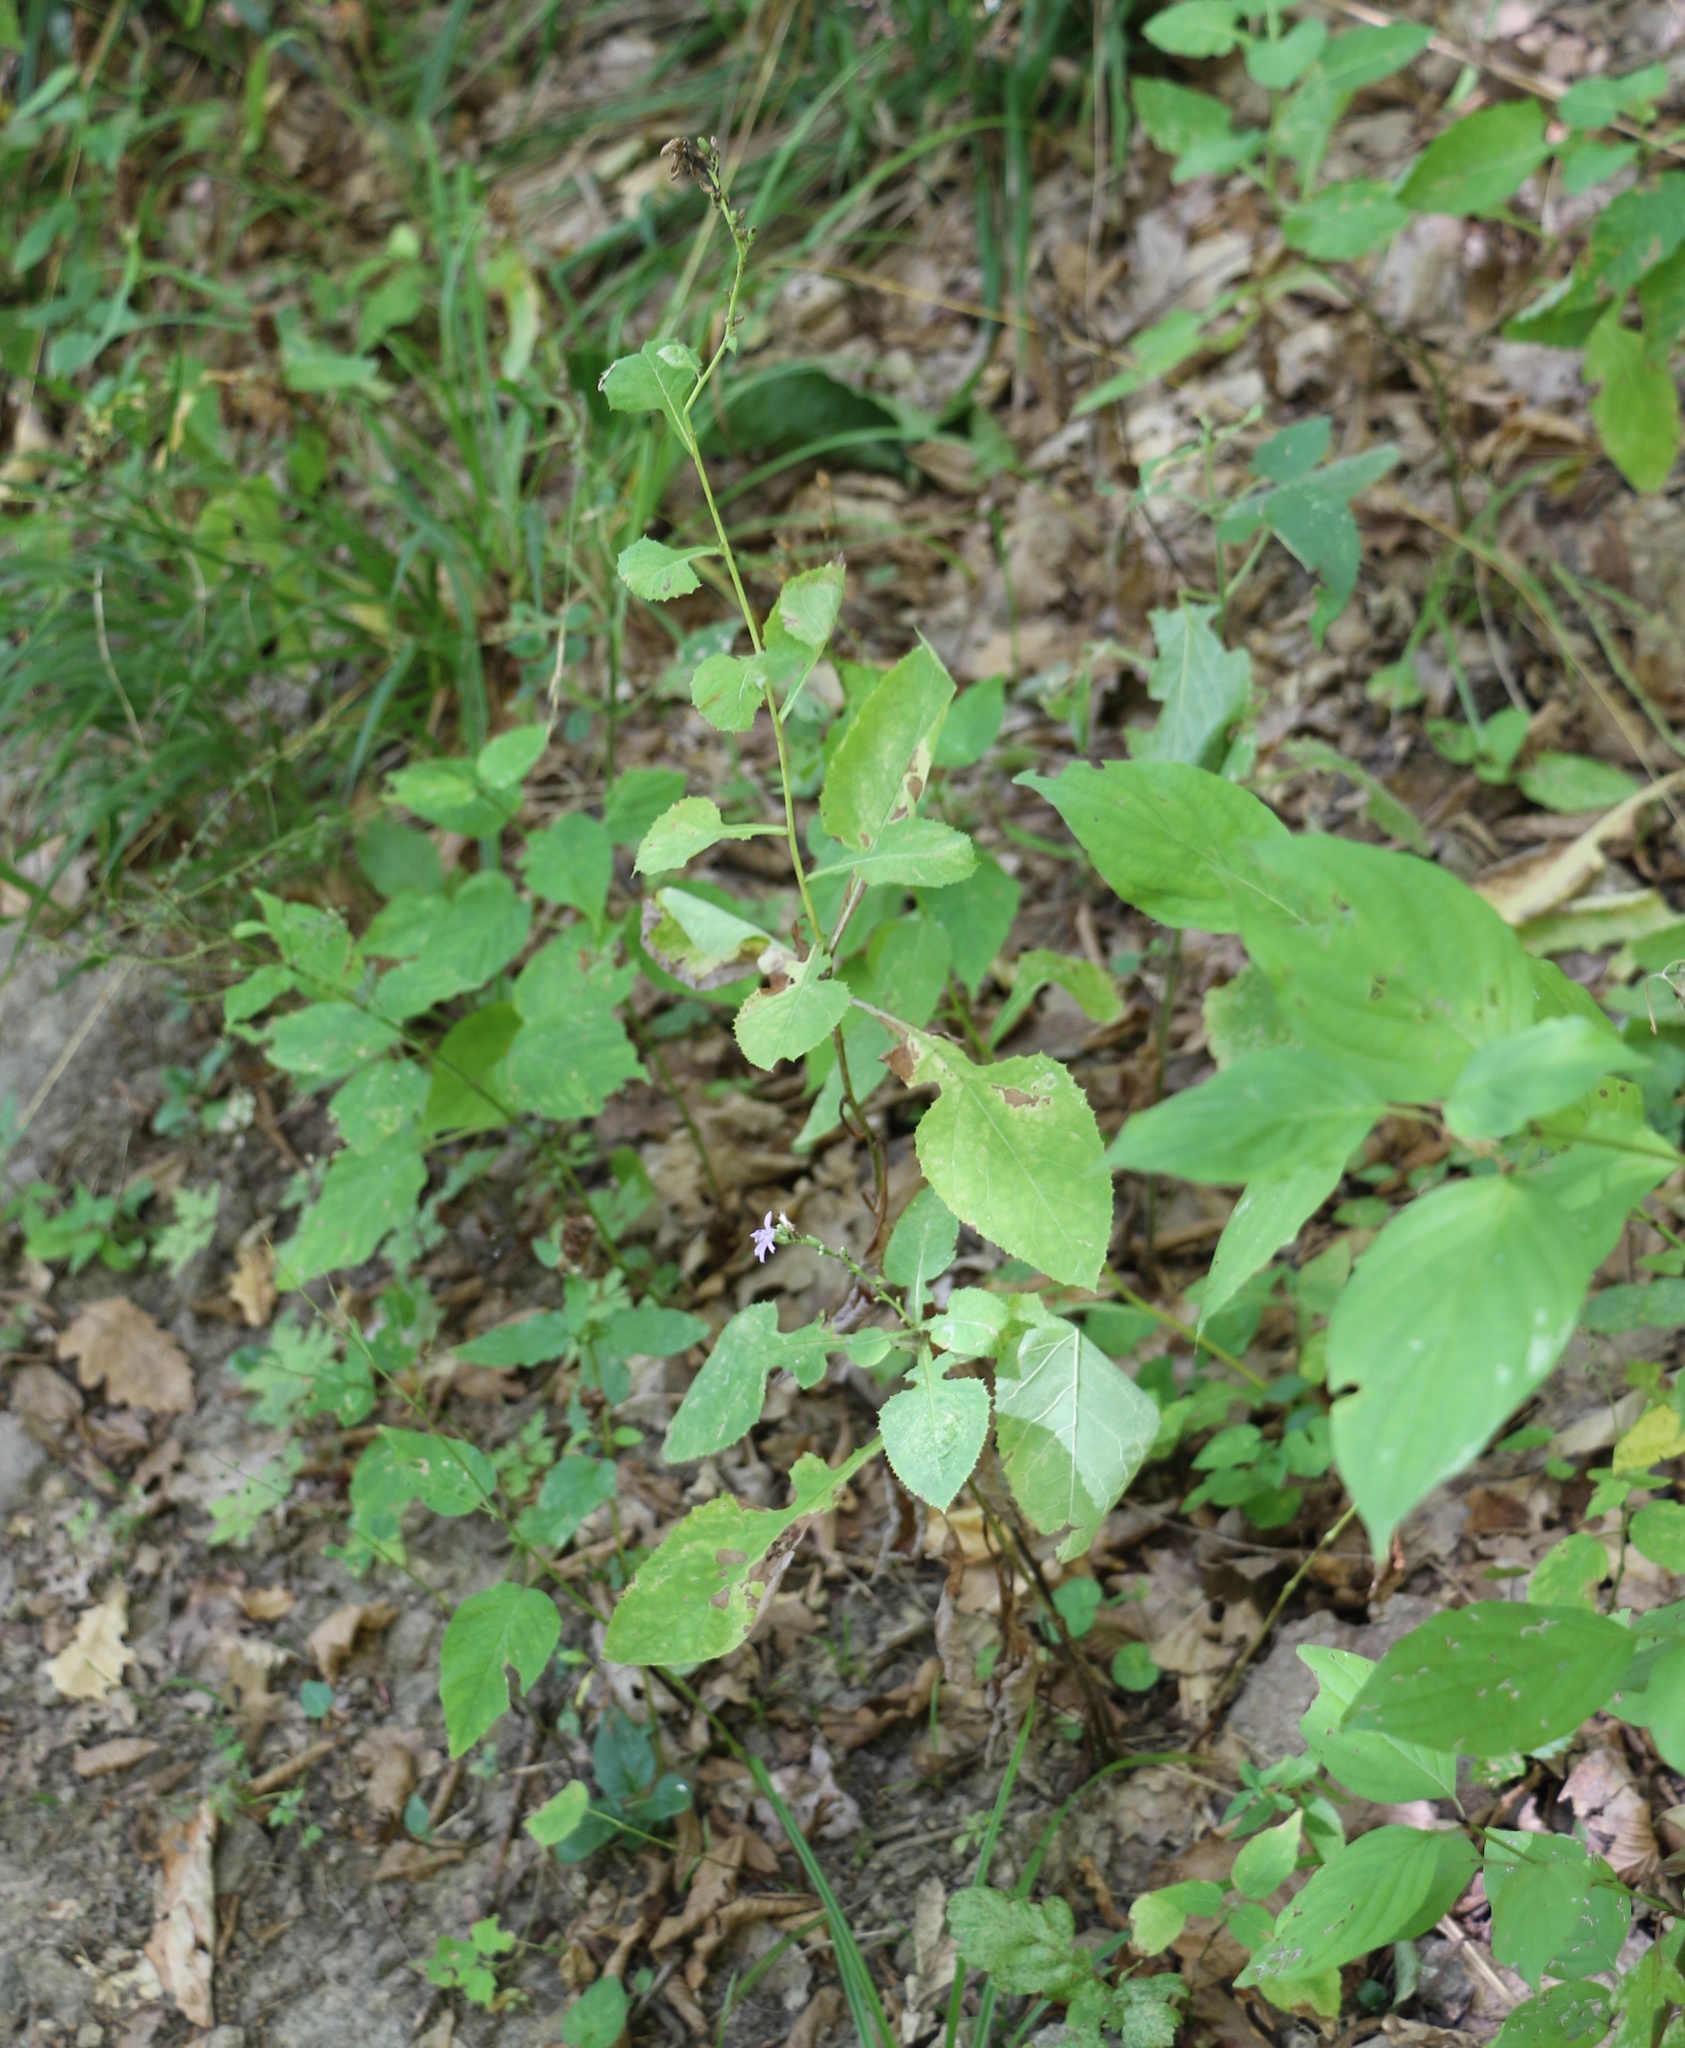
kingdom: Plantae
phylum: Tracheophyta
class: Magnoliopsida
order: Asterales
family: Asteraceae
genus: Cicerbita
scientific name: Cicerbita prenanthoides
